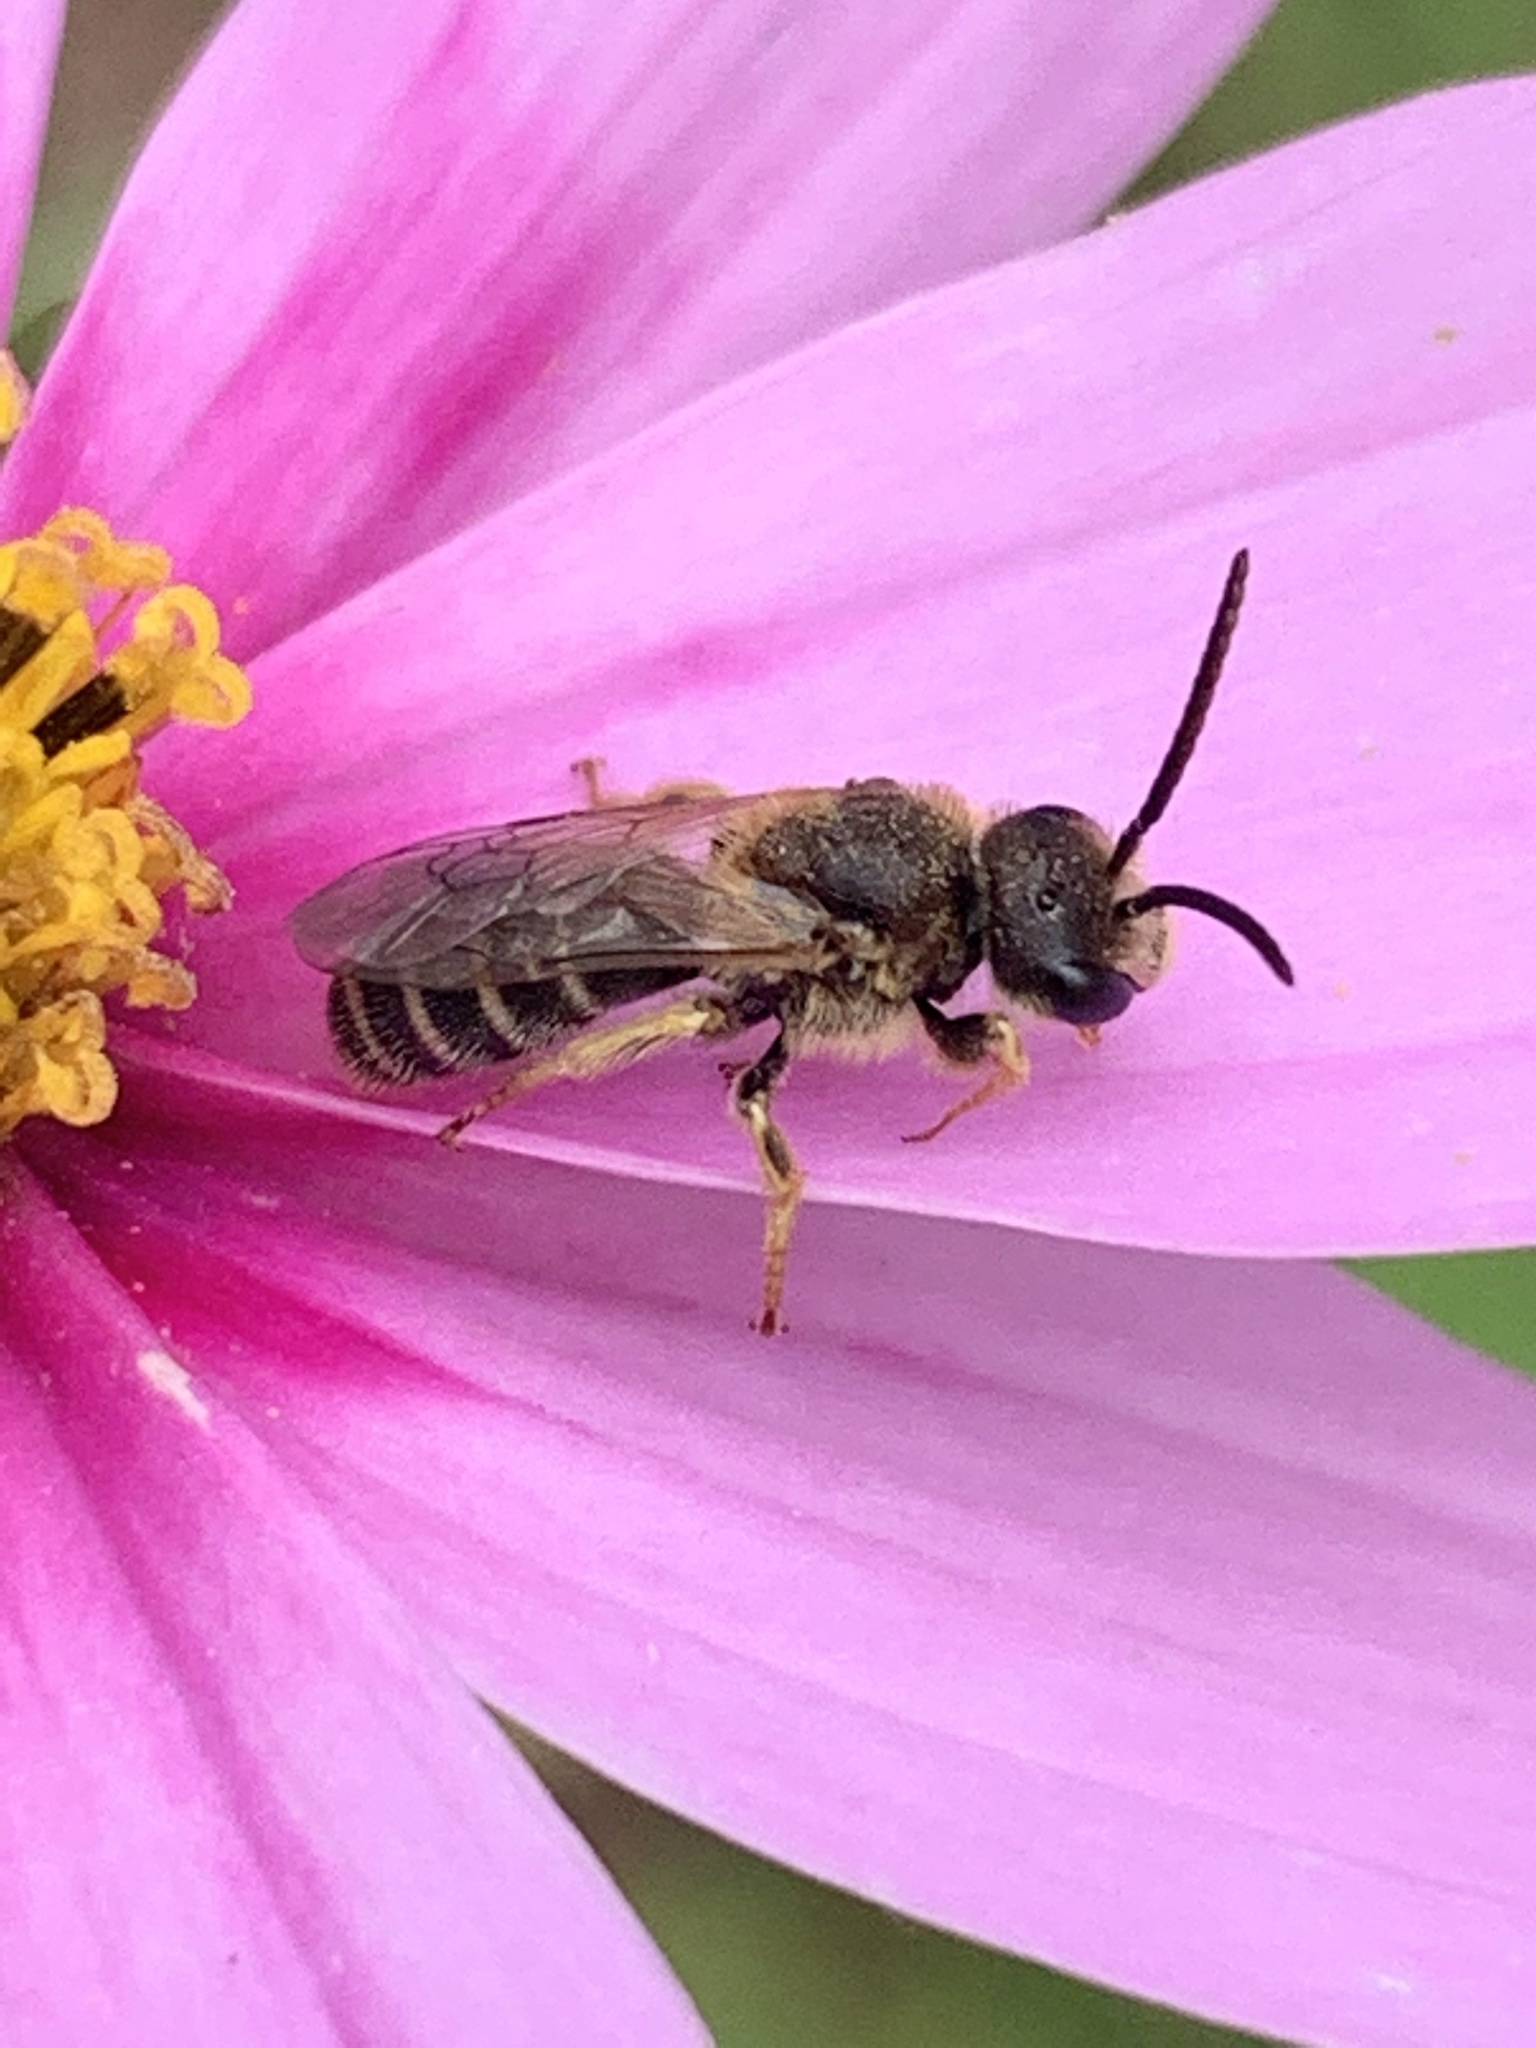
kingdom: Animalia
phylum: Arthropoda
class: Insecta
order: Hymenoptera
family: Halictidae
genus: Halictus
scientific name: Halictus ligatus
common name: Ligated furrow bee
